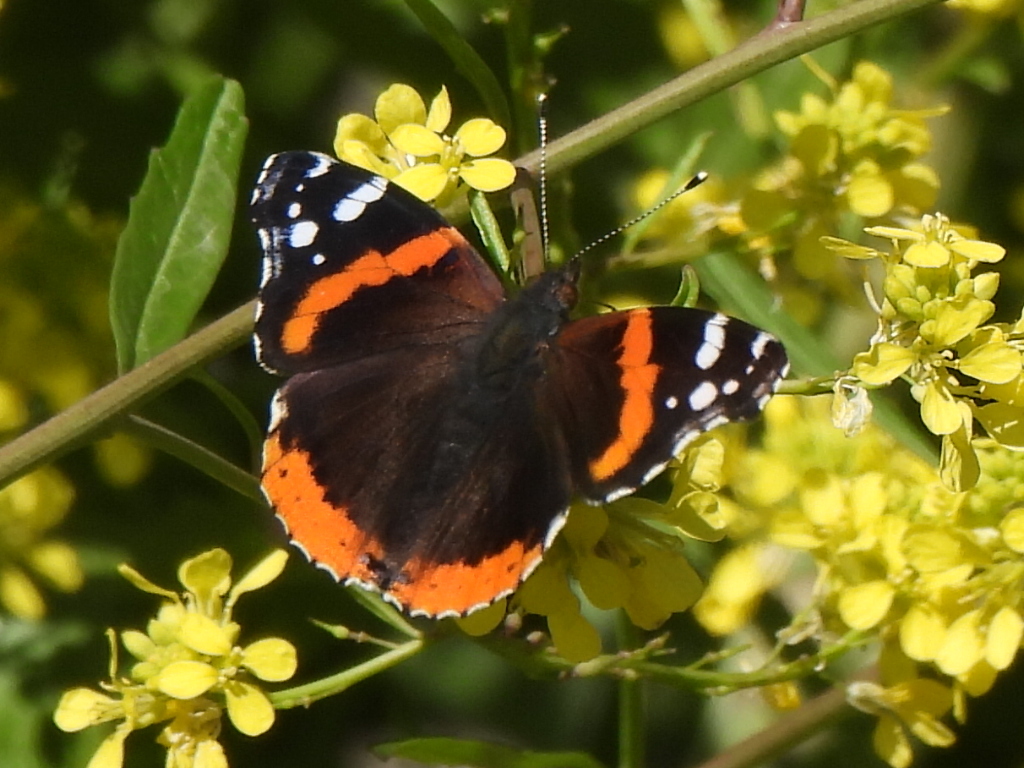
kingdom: Animalia
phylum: Arthropoda
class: Insecta
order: Lepidoptera
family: Nymphalidae
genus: Vanessa
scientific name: Vanessa atalanta
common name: Red admiral
